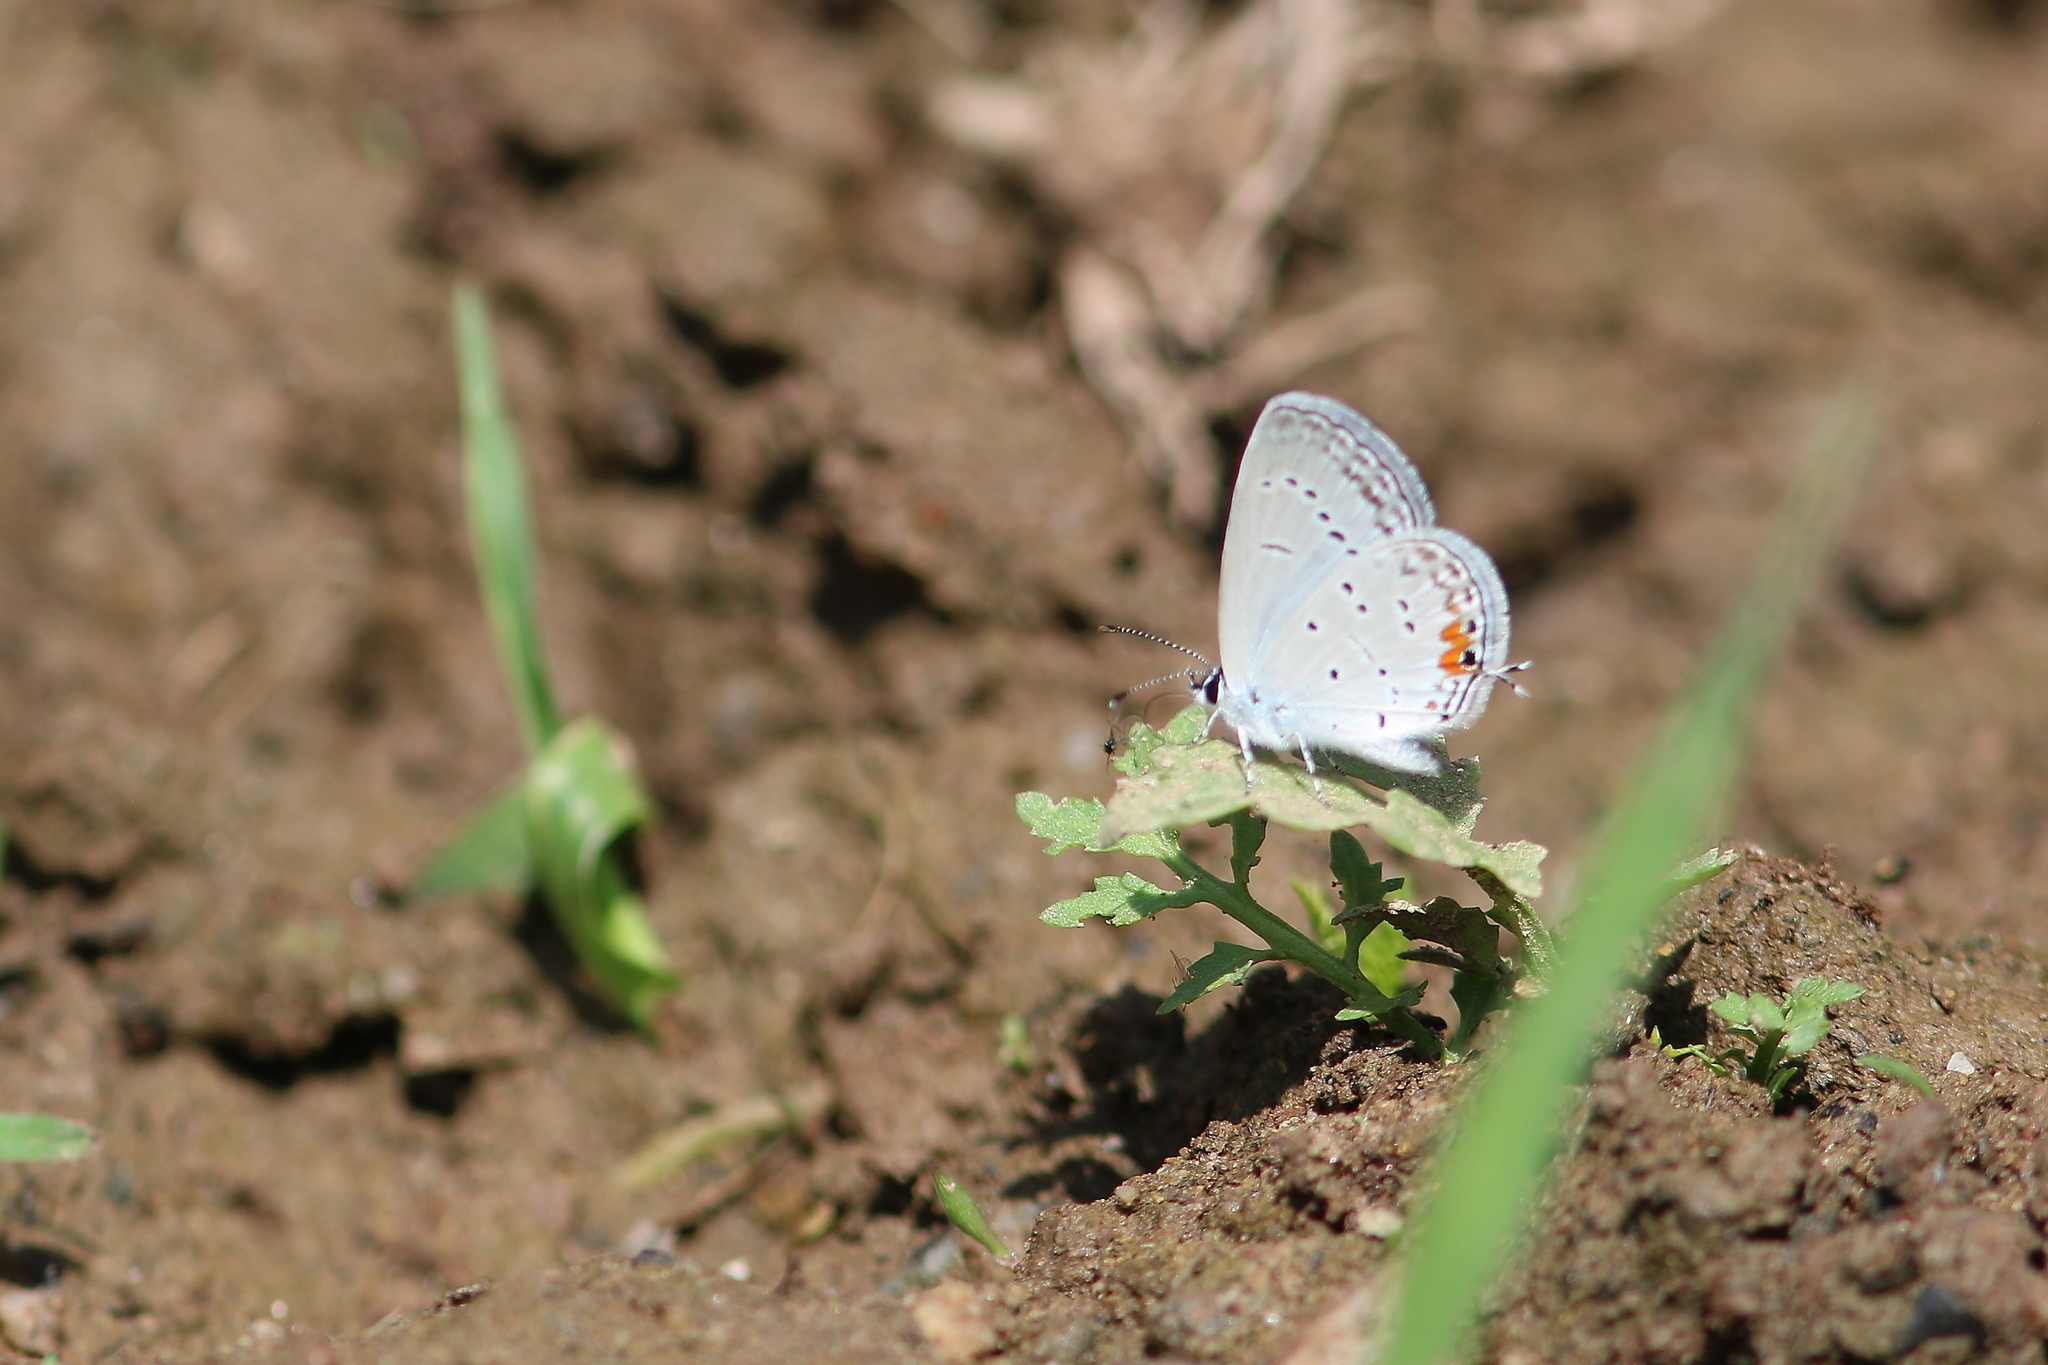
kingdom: Animalia
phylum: Arthropoda
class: Insecta
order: Lepidoptera
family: Lycaenidae
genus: Elkalyce
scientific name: Elkalyce comyntas
